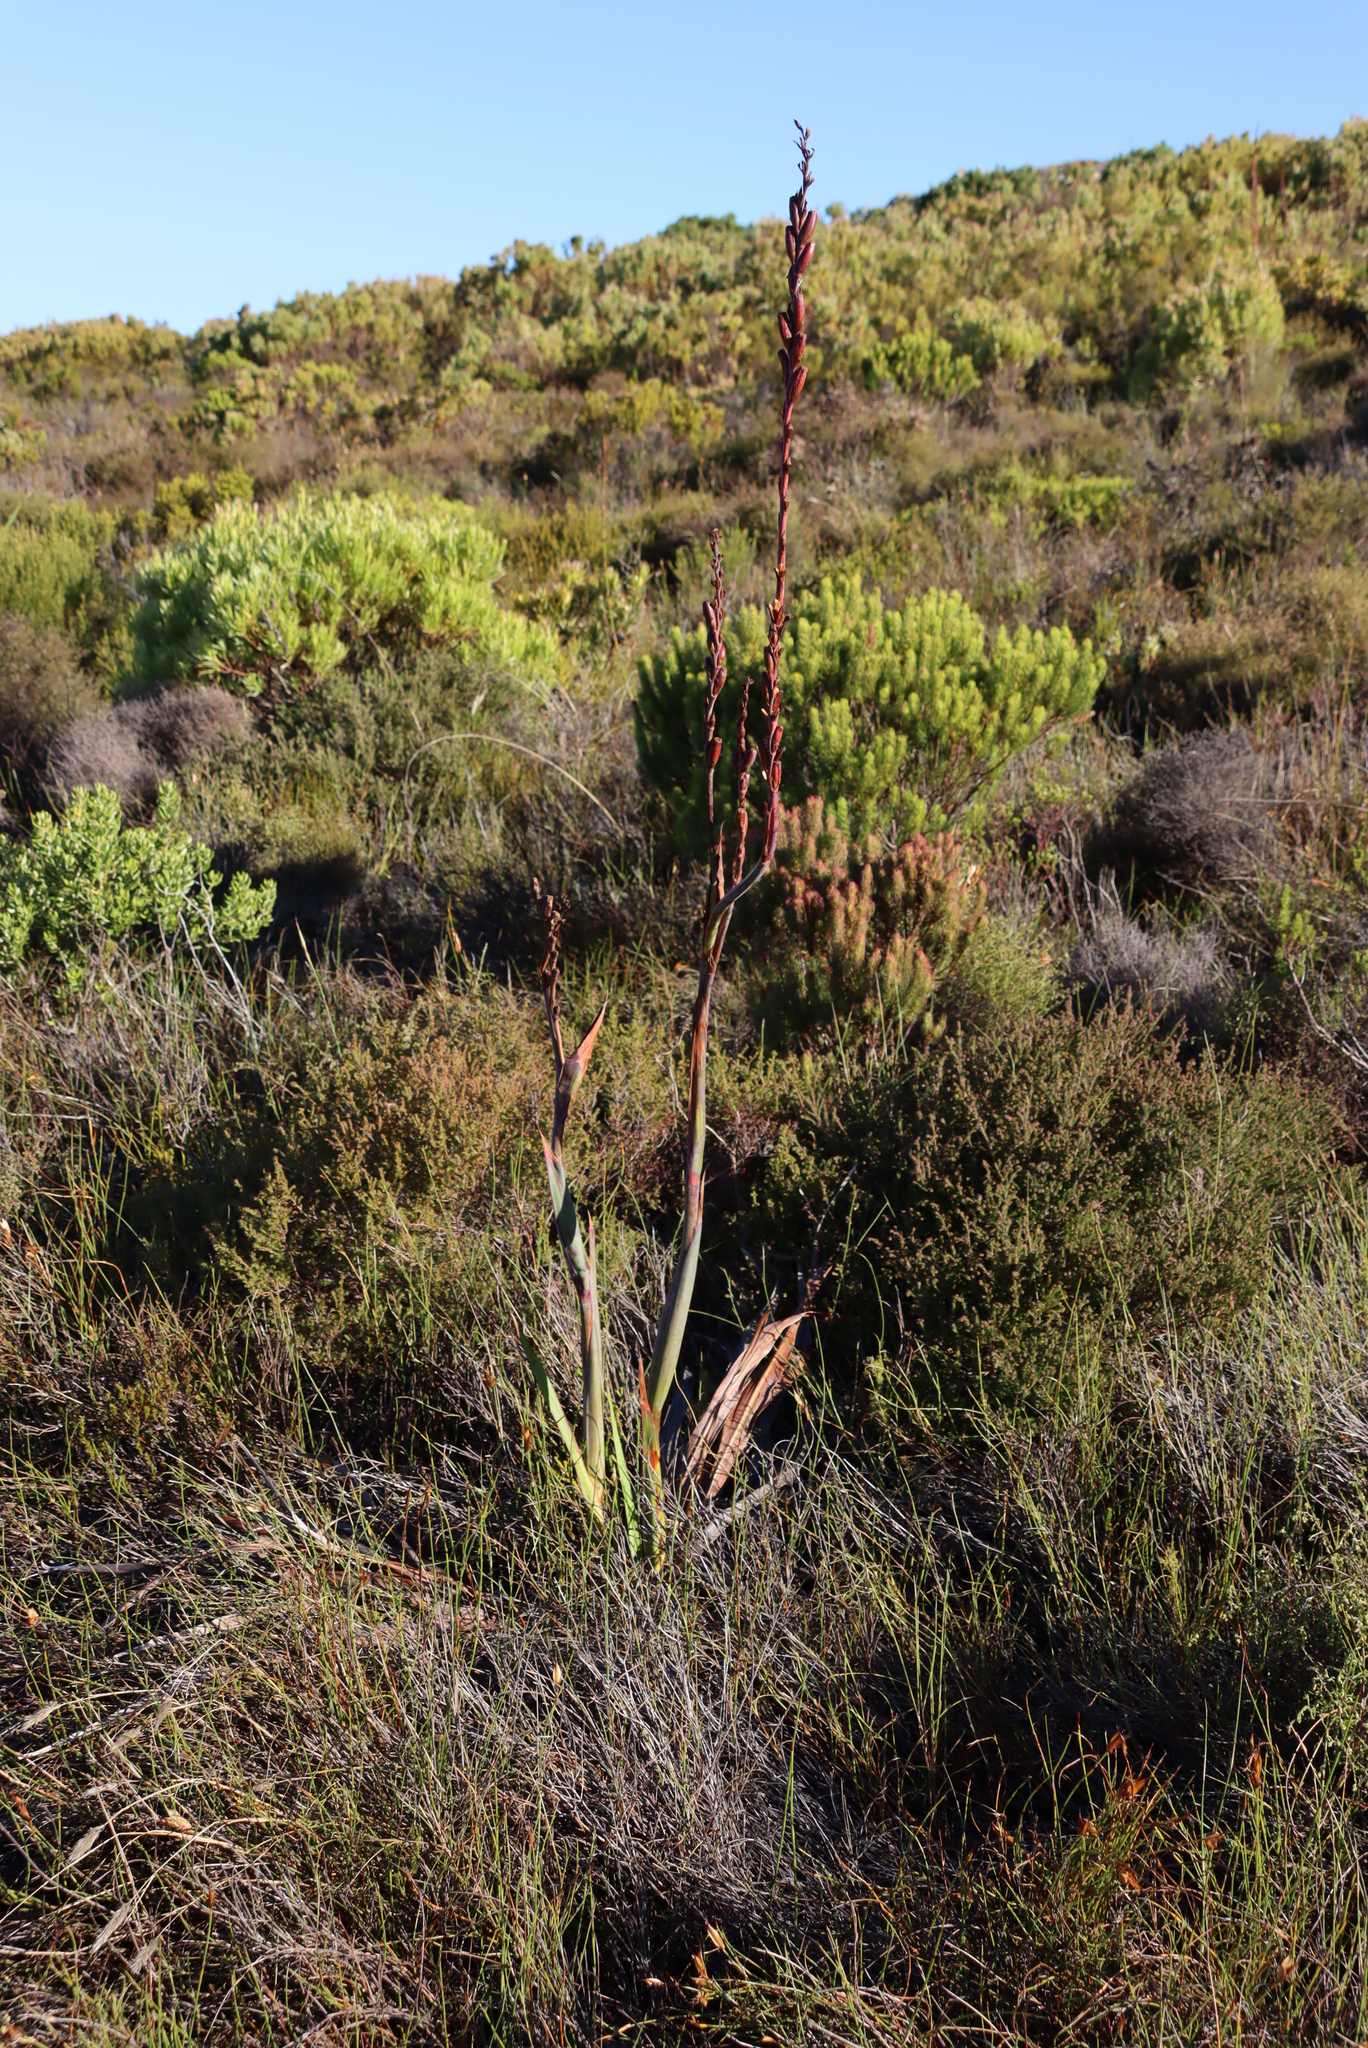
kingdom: Plantae
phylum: Tracheophyta
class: Liliopsida
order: Asparagales
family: Iridaceae
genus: Watsonia
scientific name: Watsonia tabularis
